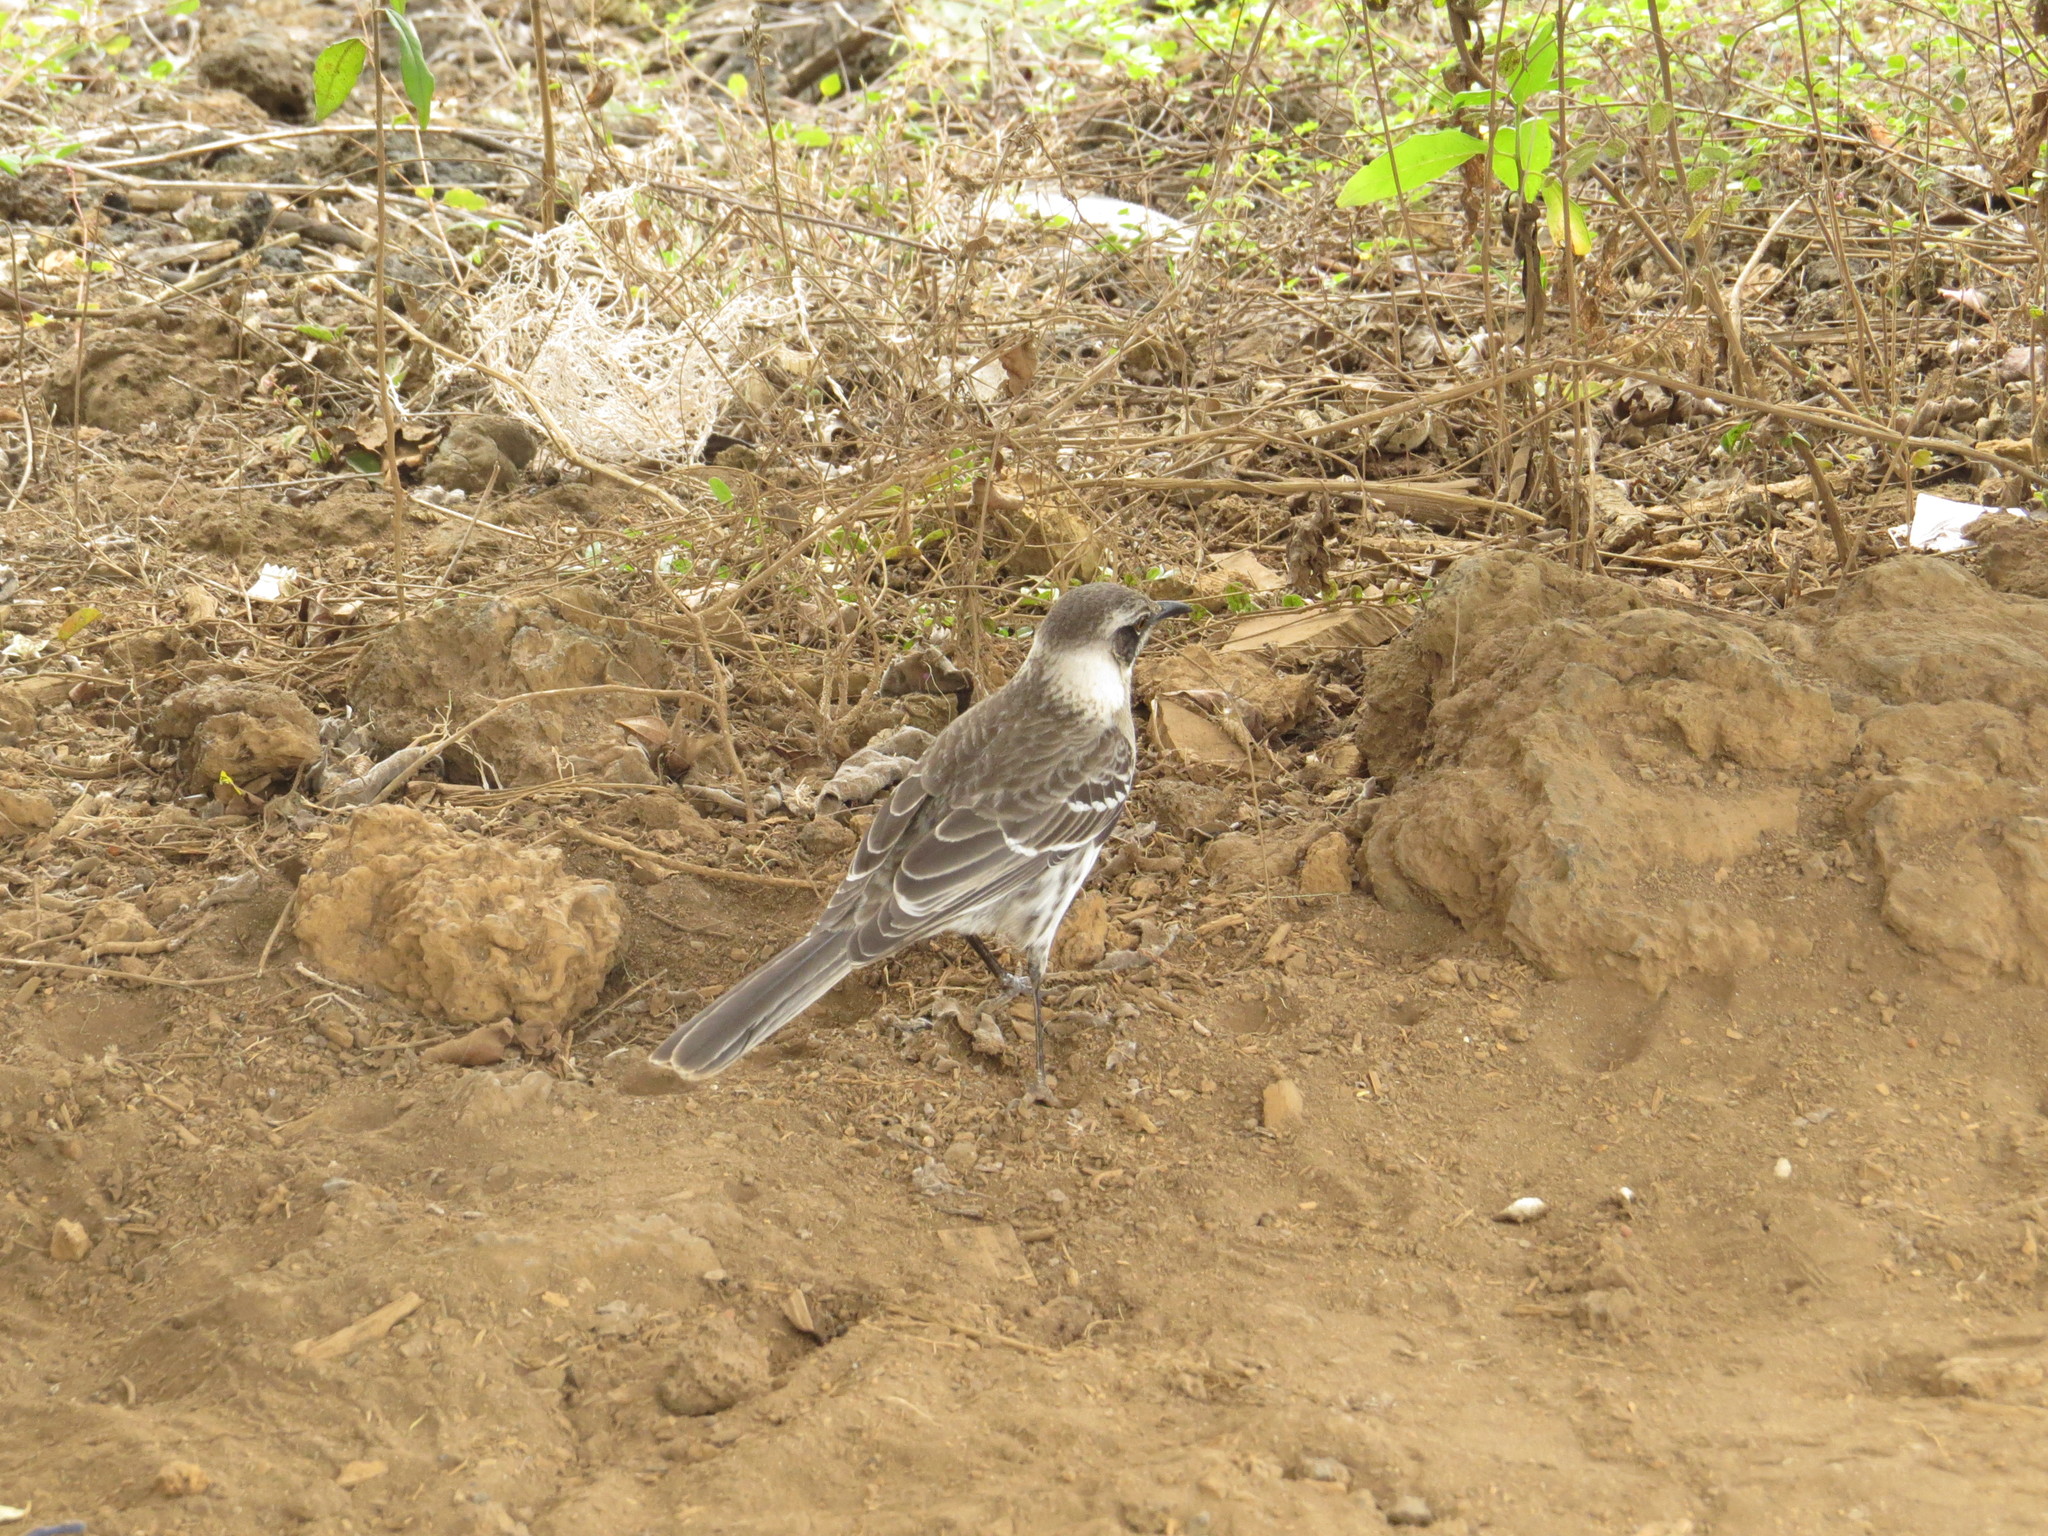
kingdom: Animalia
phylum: Chordata
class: Aves
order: Passeriformes
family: Mimidae
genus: Mimus
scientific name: Mimus parvulus
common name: Galapagos mockingbird
